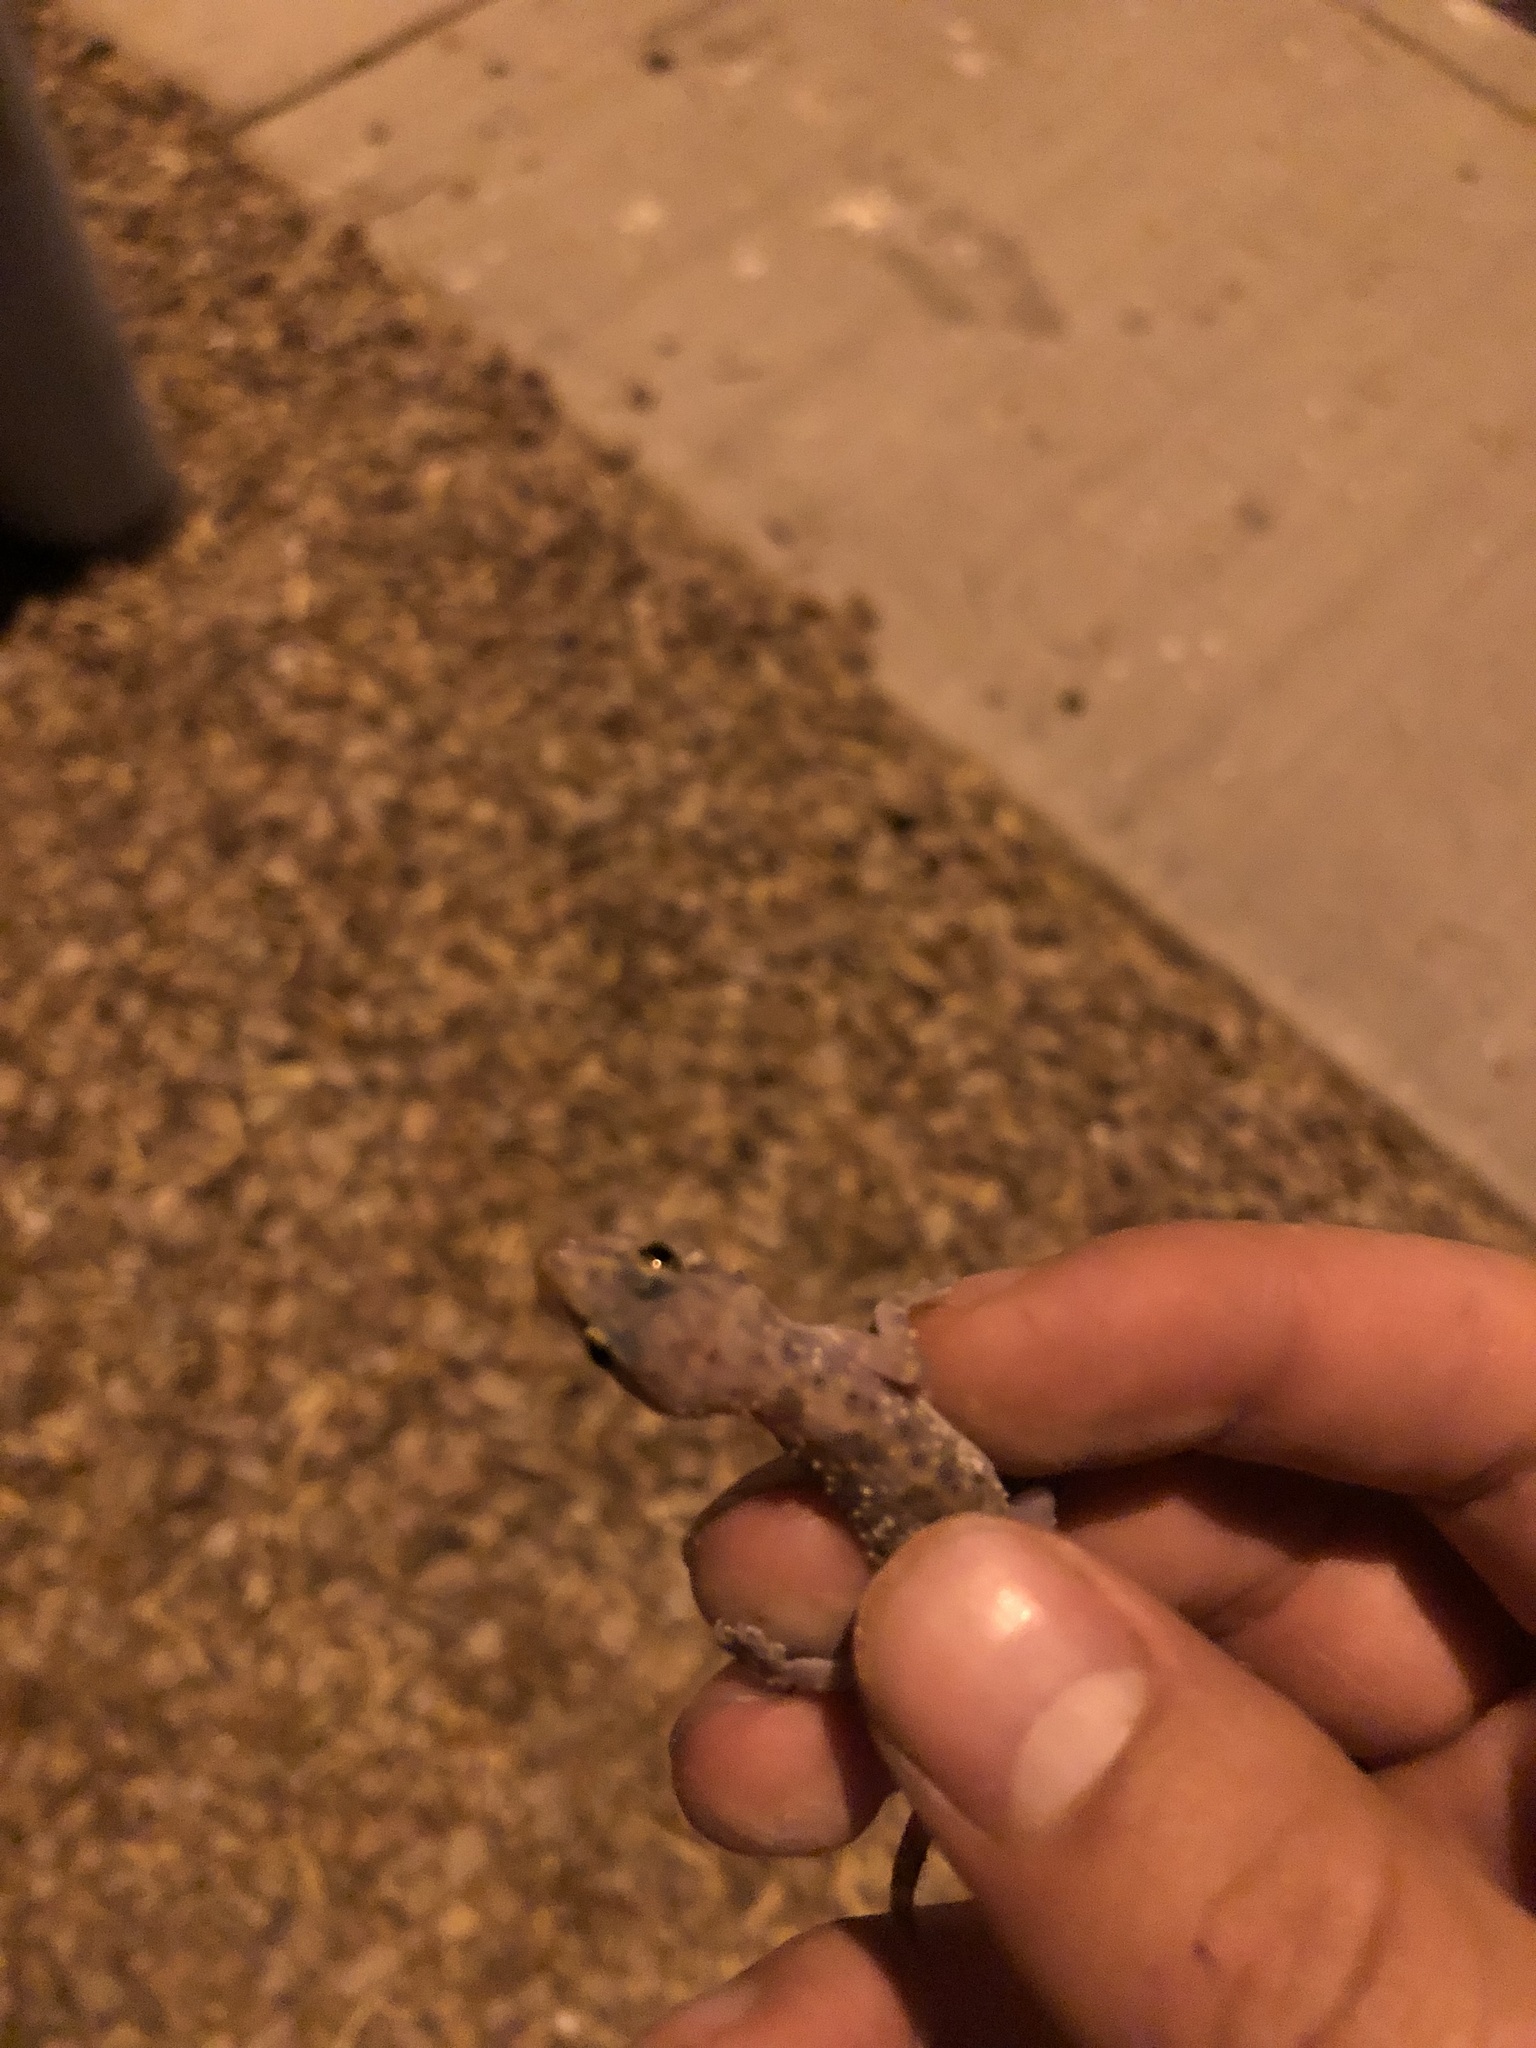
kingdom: Animalia
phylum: Chordata
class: Squamata
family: Gekkonidae
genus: Hemidactylus
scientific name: Hemidactylus turcicus
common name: Turkish gecko
